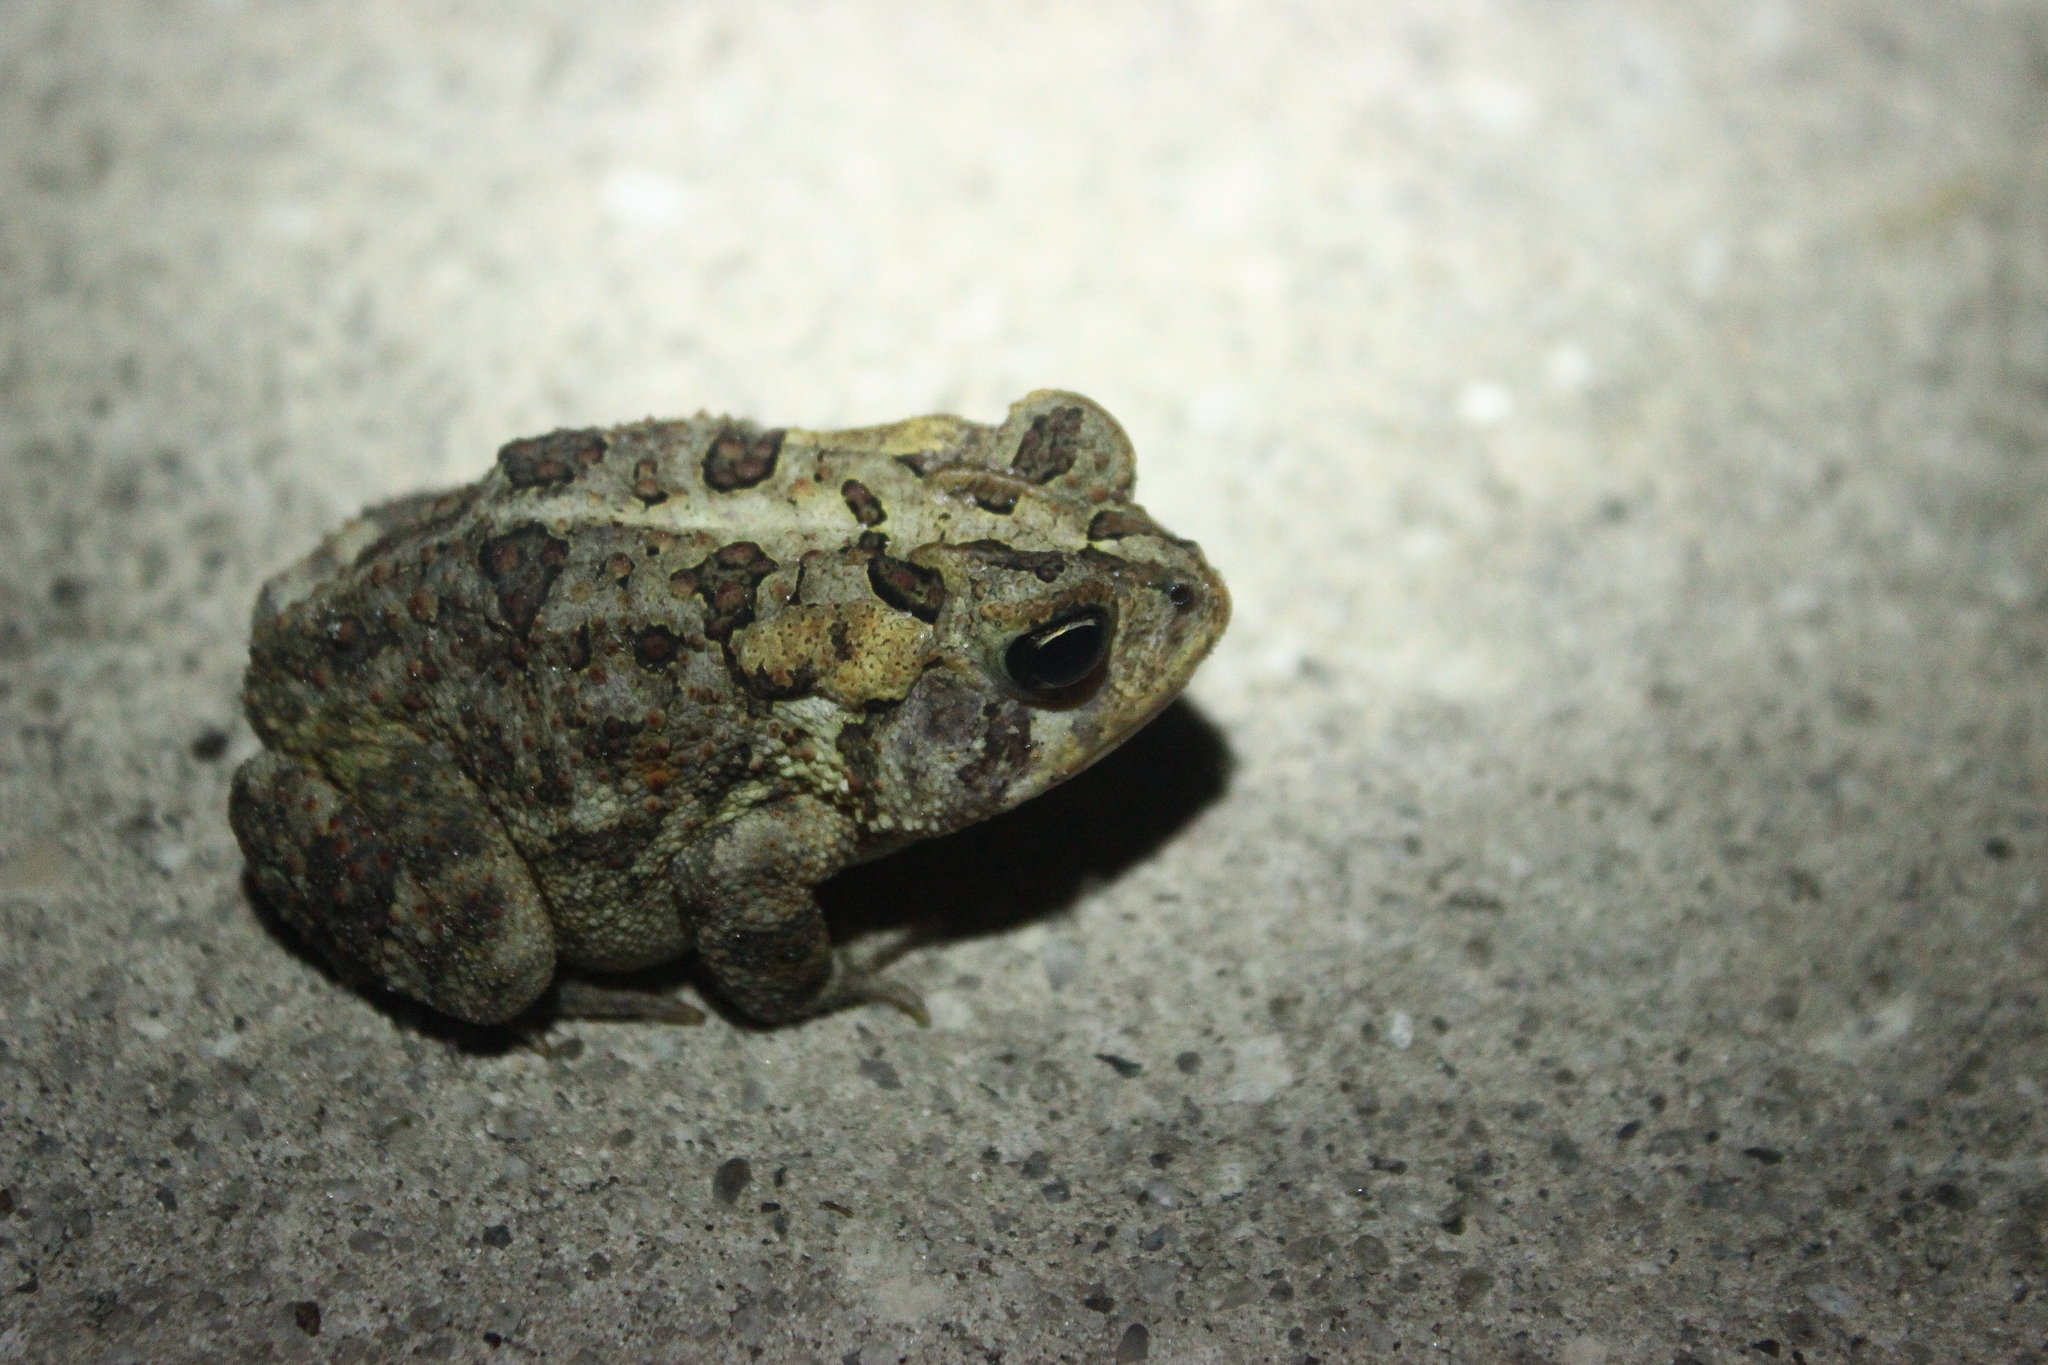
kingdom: Animalia
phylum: Chordata
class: Amphibia
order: Anura
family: Bufonidae
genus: Anaxyrus
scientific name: Anaxyrus terrestris
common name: Southern toad
